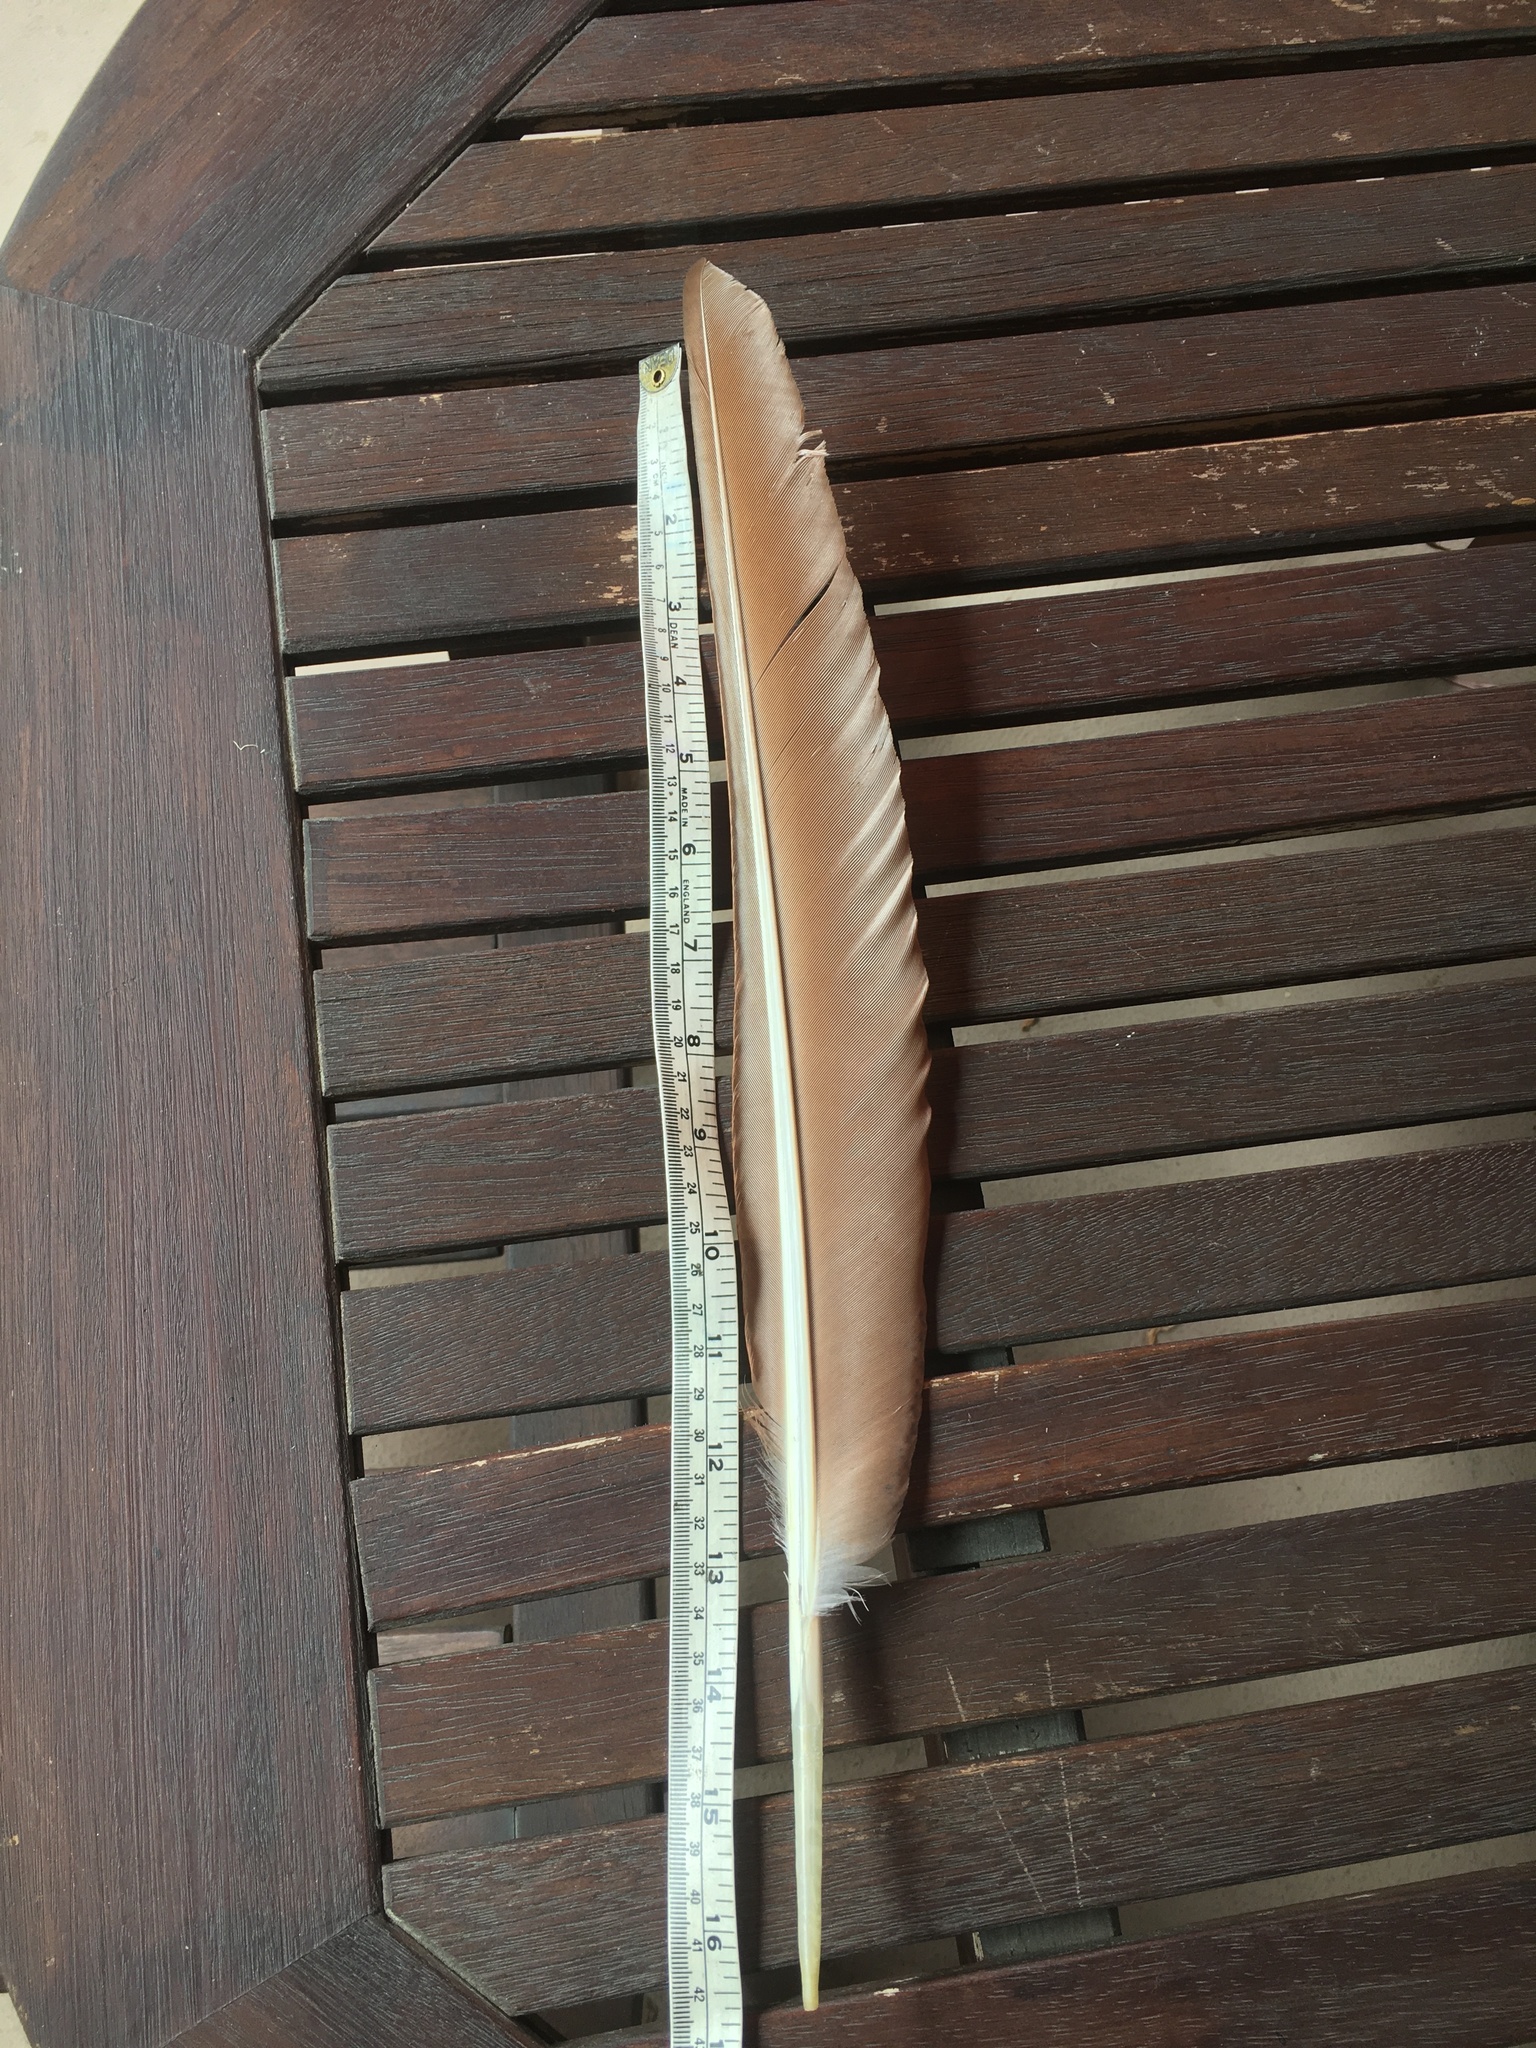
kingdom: Animalia
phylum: Chordata
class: Aves
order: Galliformes
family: Phasianidae
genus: Pavo
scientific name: Pavo cristatus
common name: Indian peafowl
